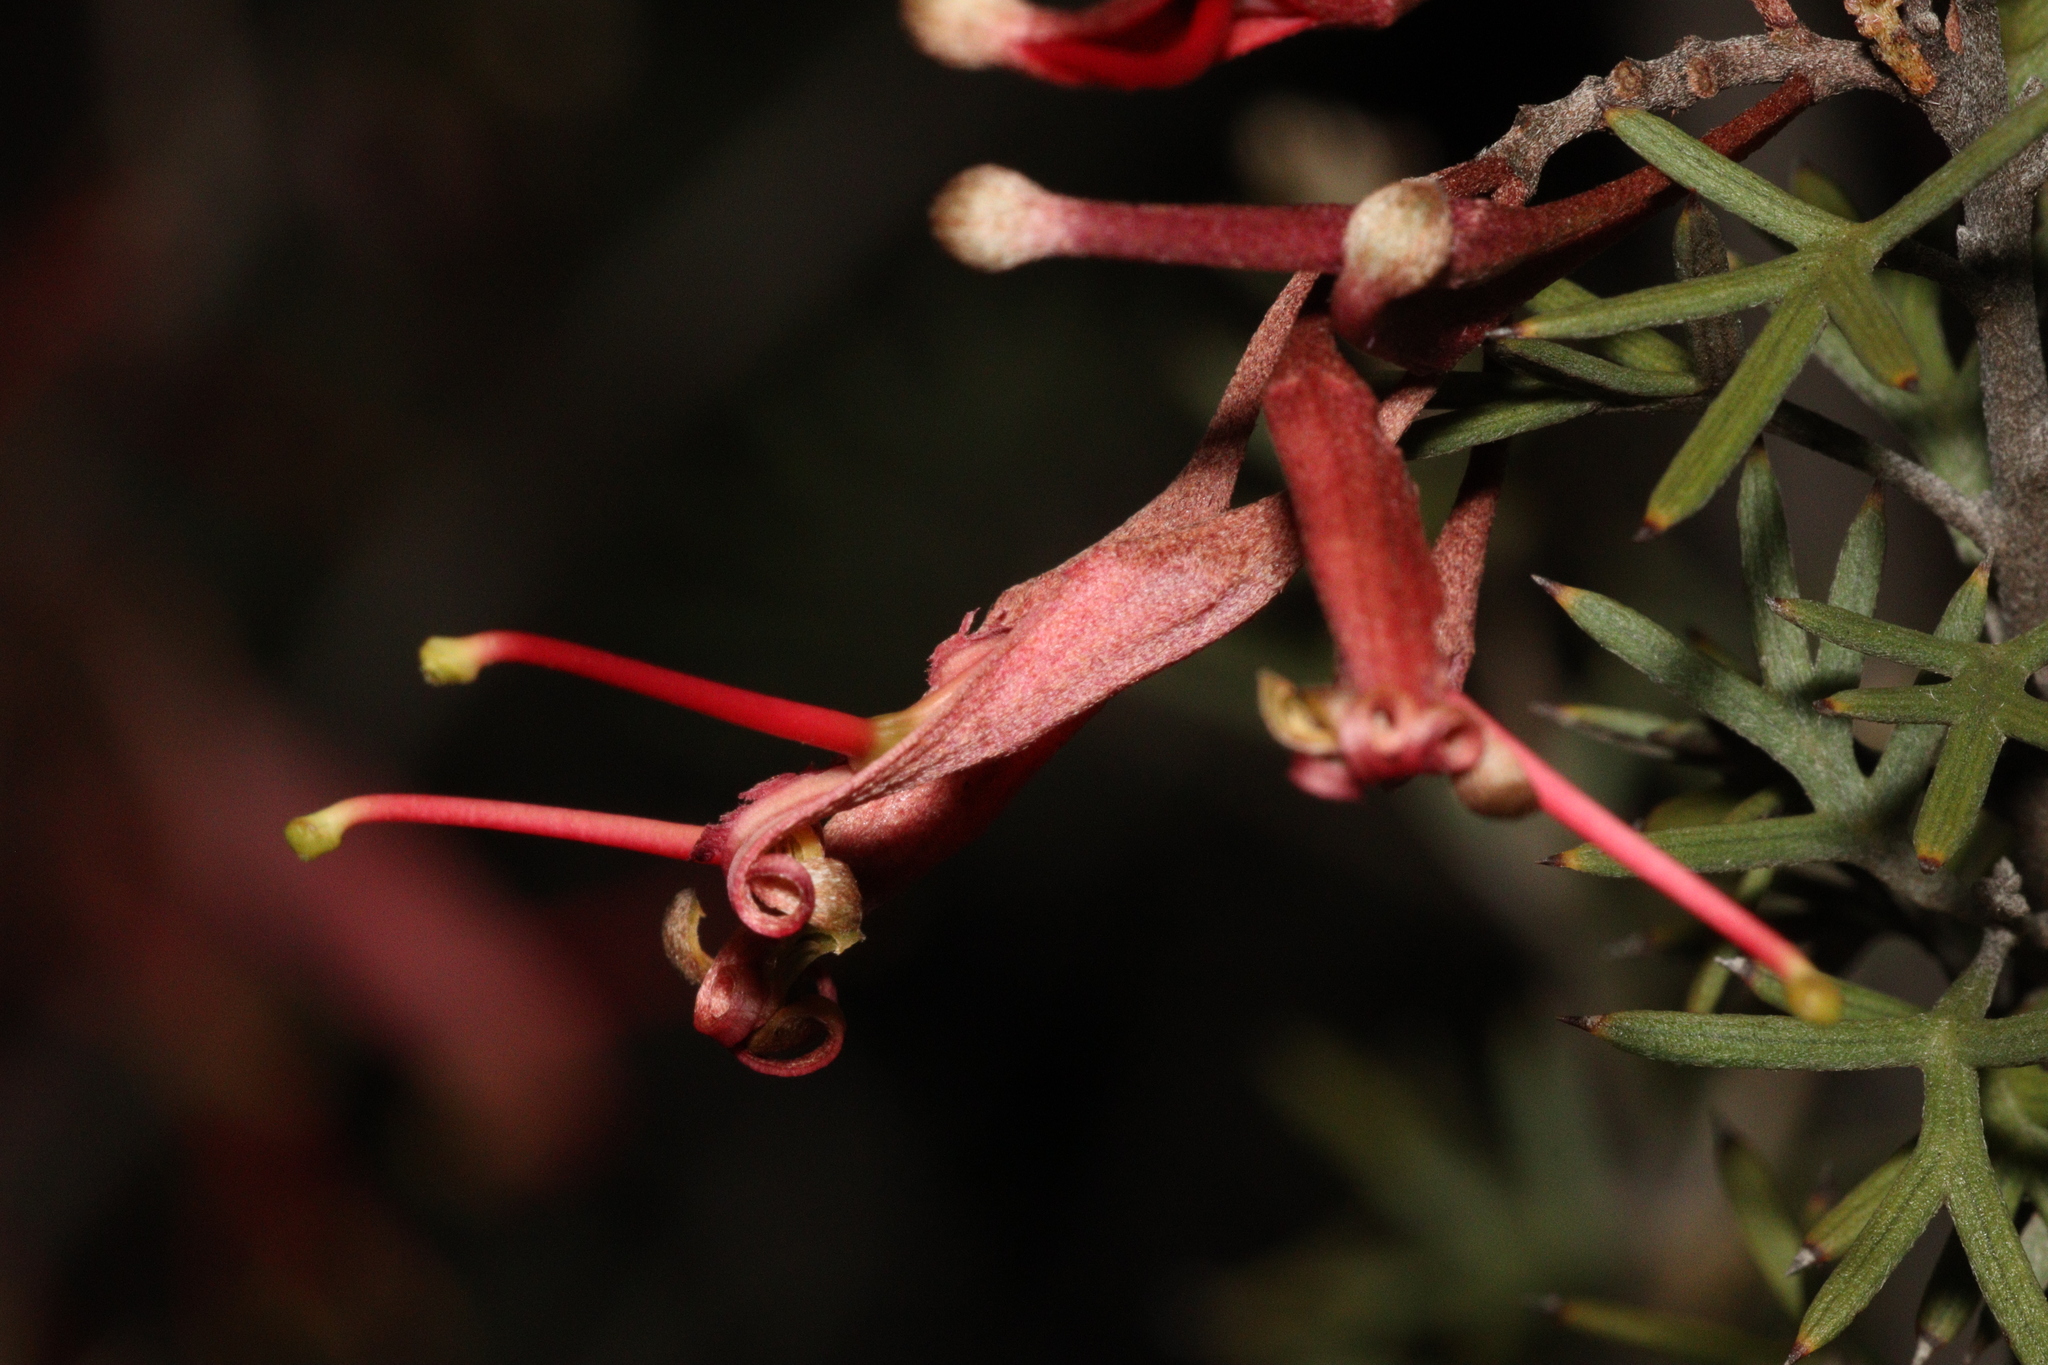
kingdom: Plantae
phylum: Tracheophyta
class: Magnoliopsida
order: Proteales
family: Proteaceae
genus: Grevillea
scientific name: Grevillea huegelii
